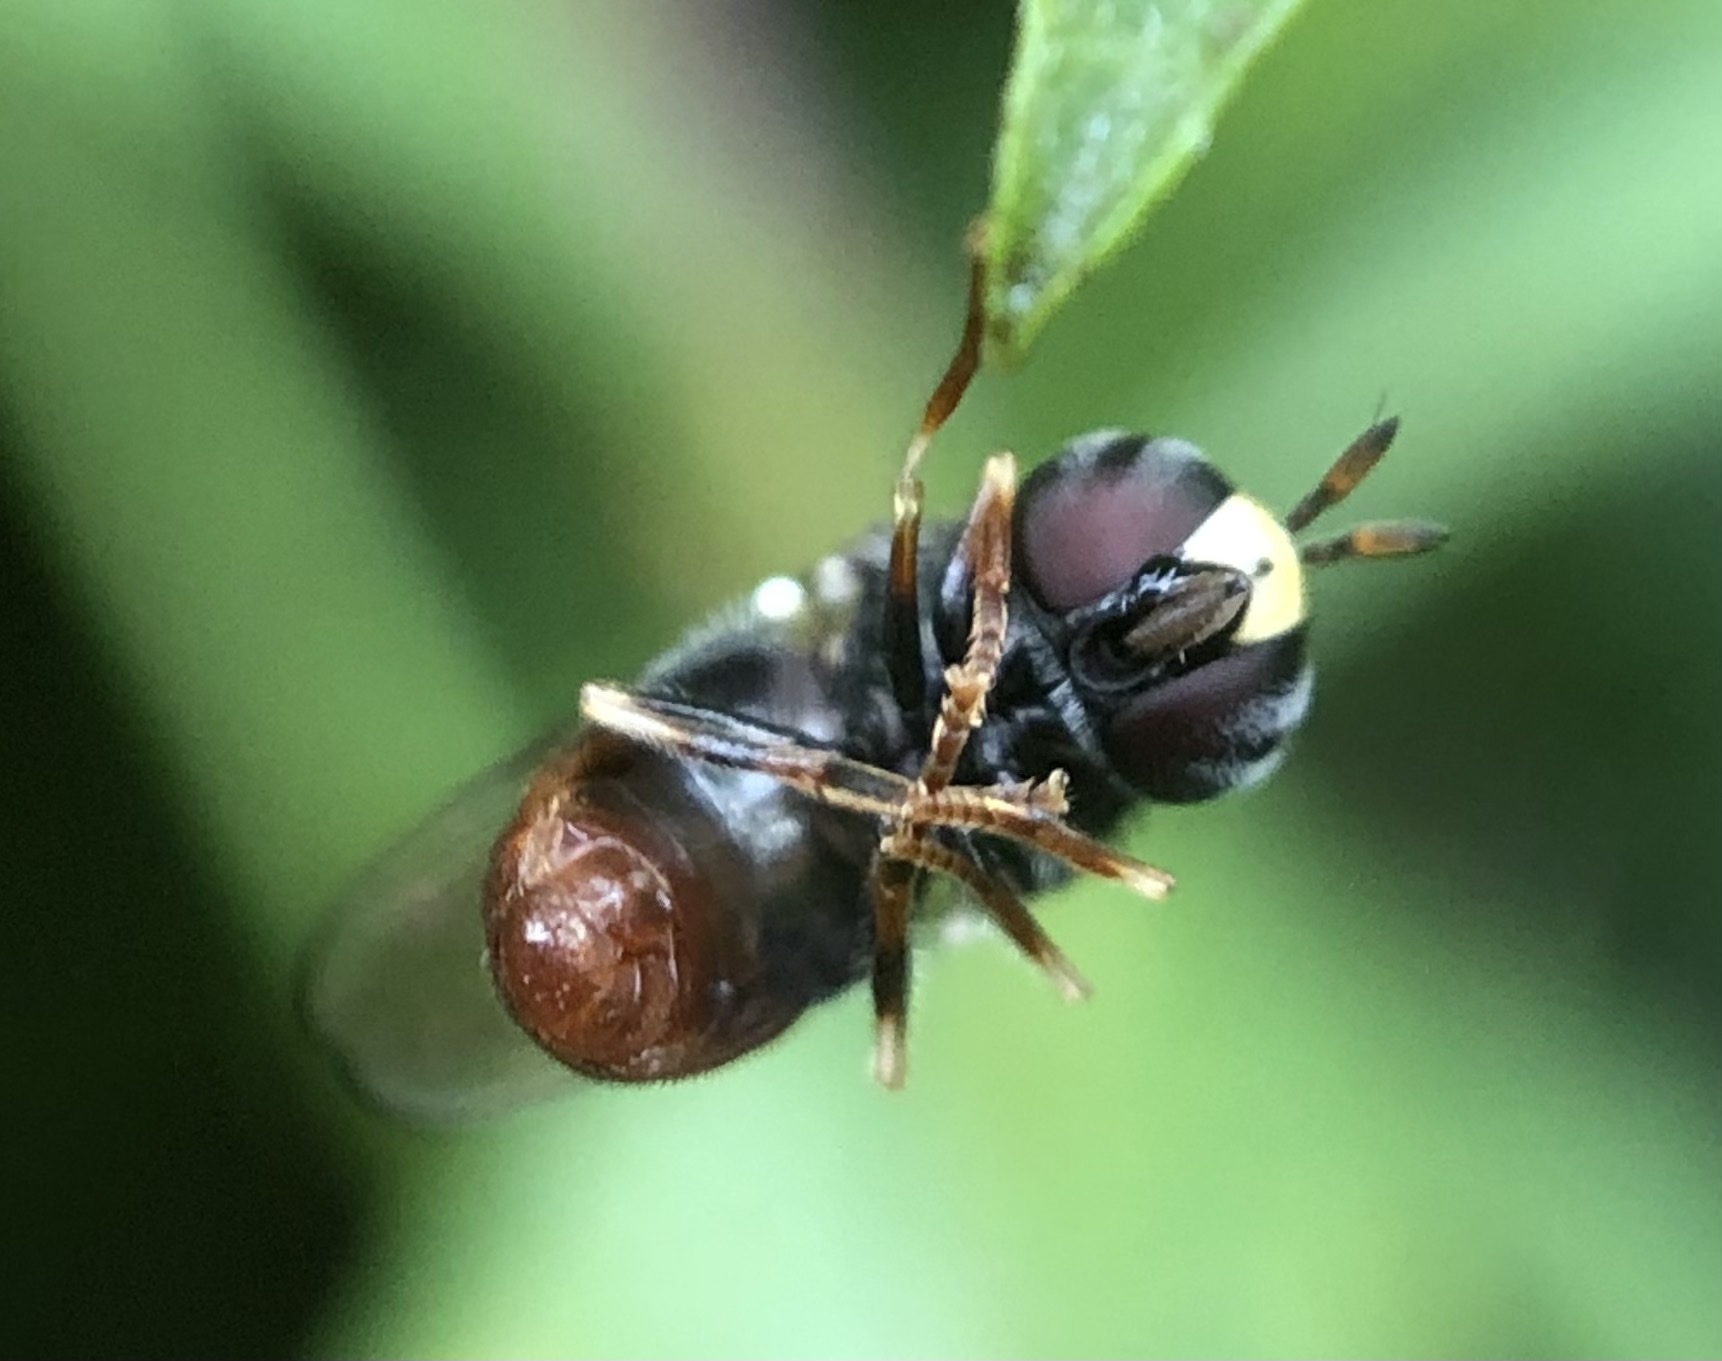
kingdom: Animalia
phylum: Arthropoda
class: Insecta
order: Diptera
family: Syrphidae
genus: Paragus
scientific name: Paragus
